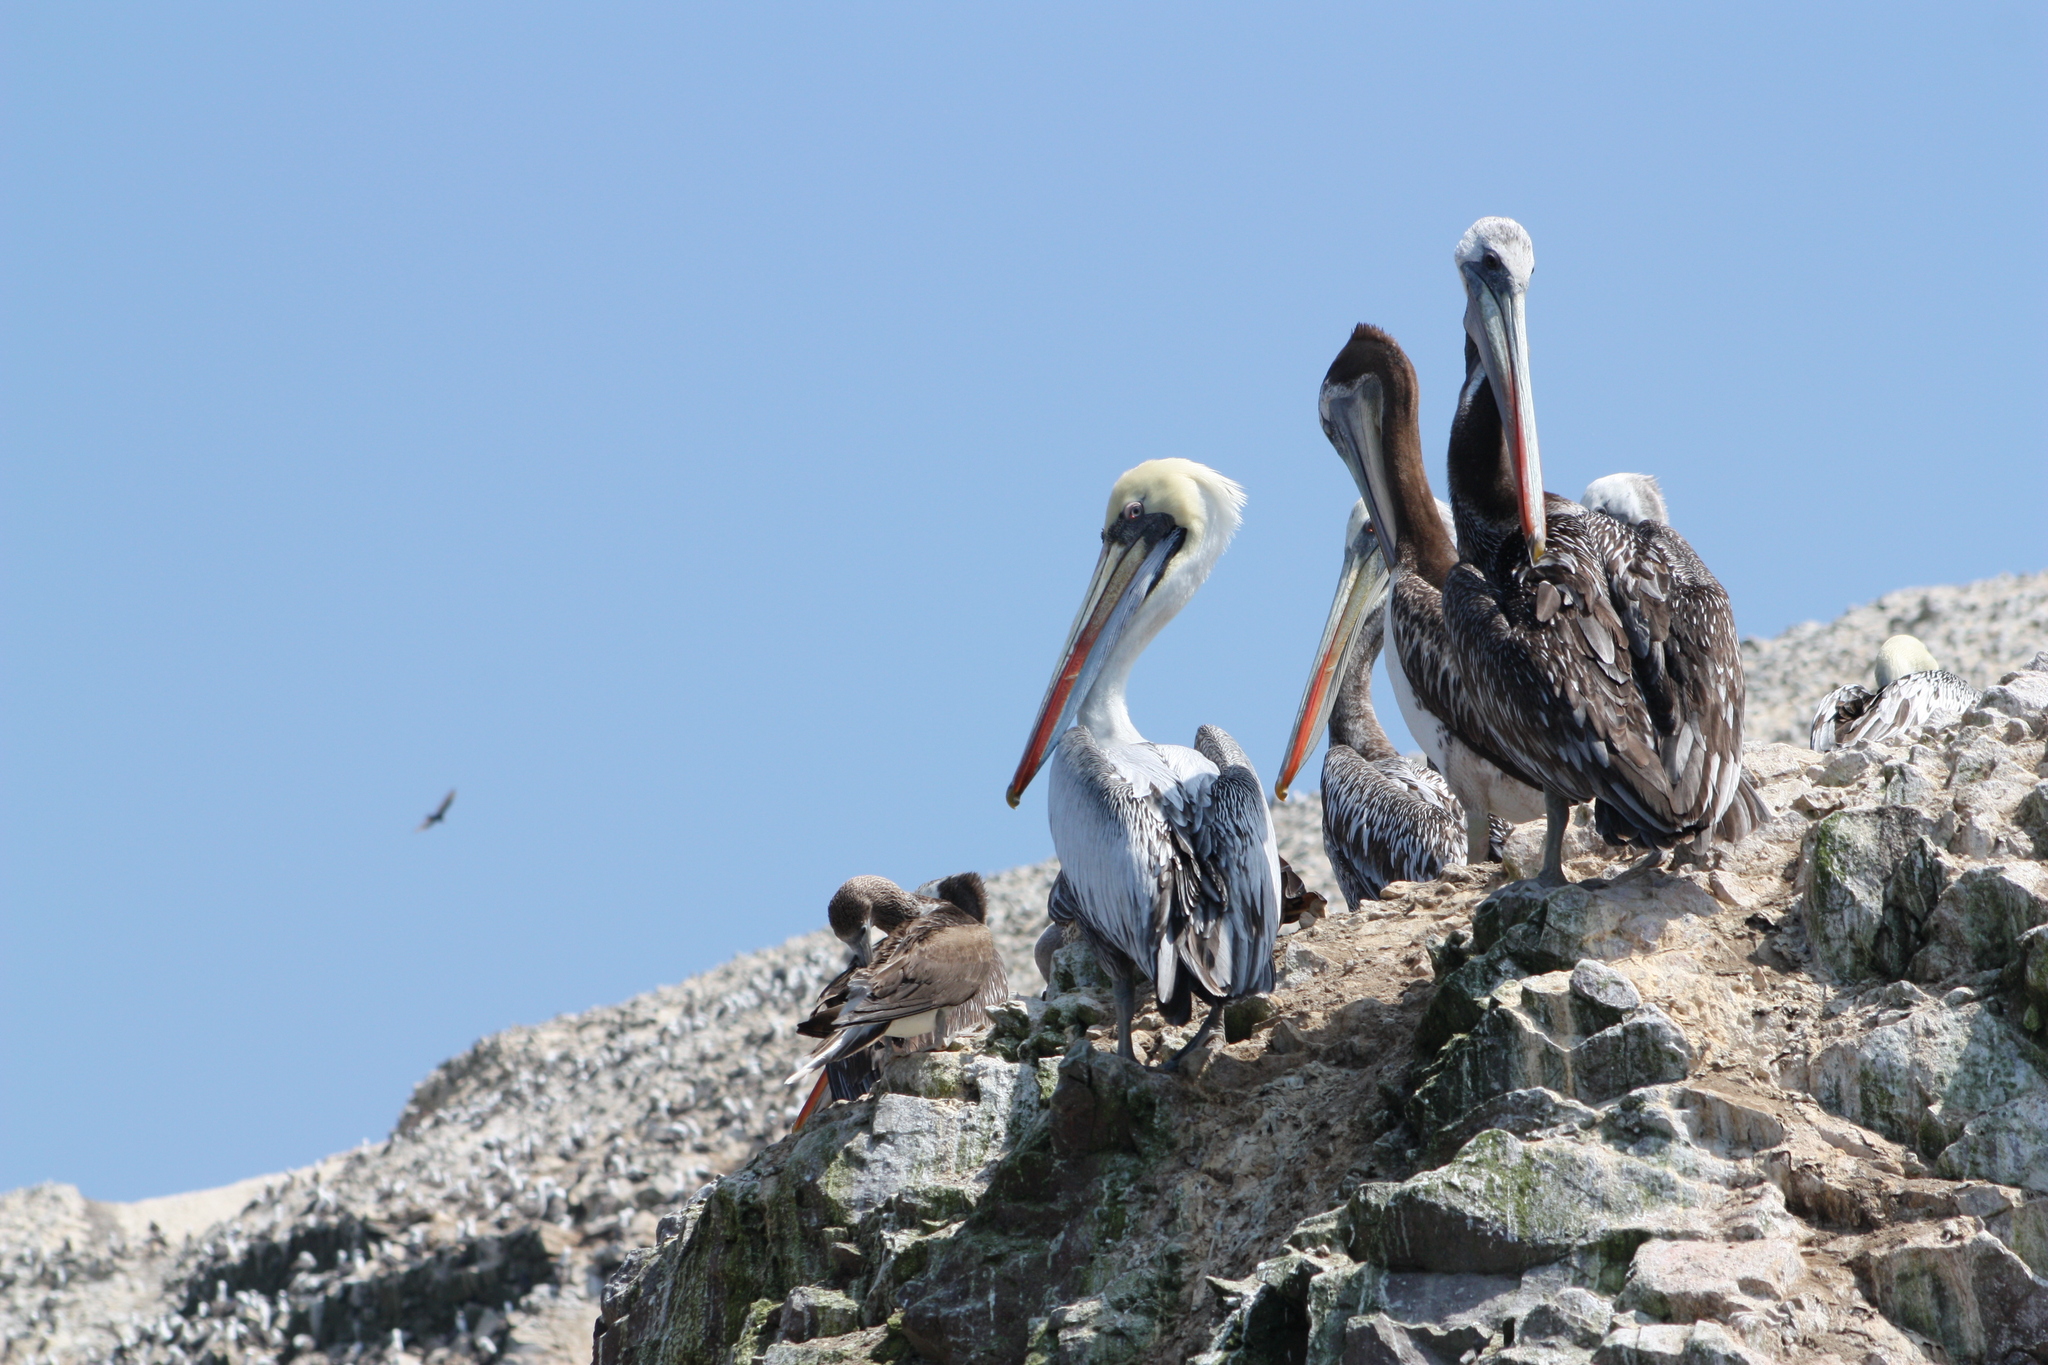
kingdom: Animalia
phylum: Chordata
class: Aves
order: Pelecaniformes
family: Pelecanidae
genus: Pelecanus
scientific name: Pelecanus thagus
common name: Peruvian pelican
